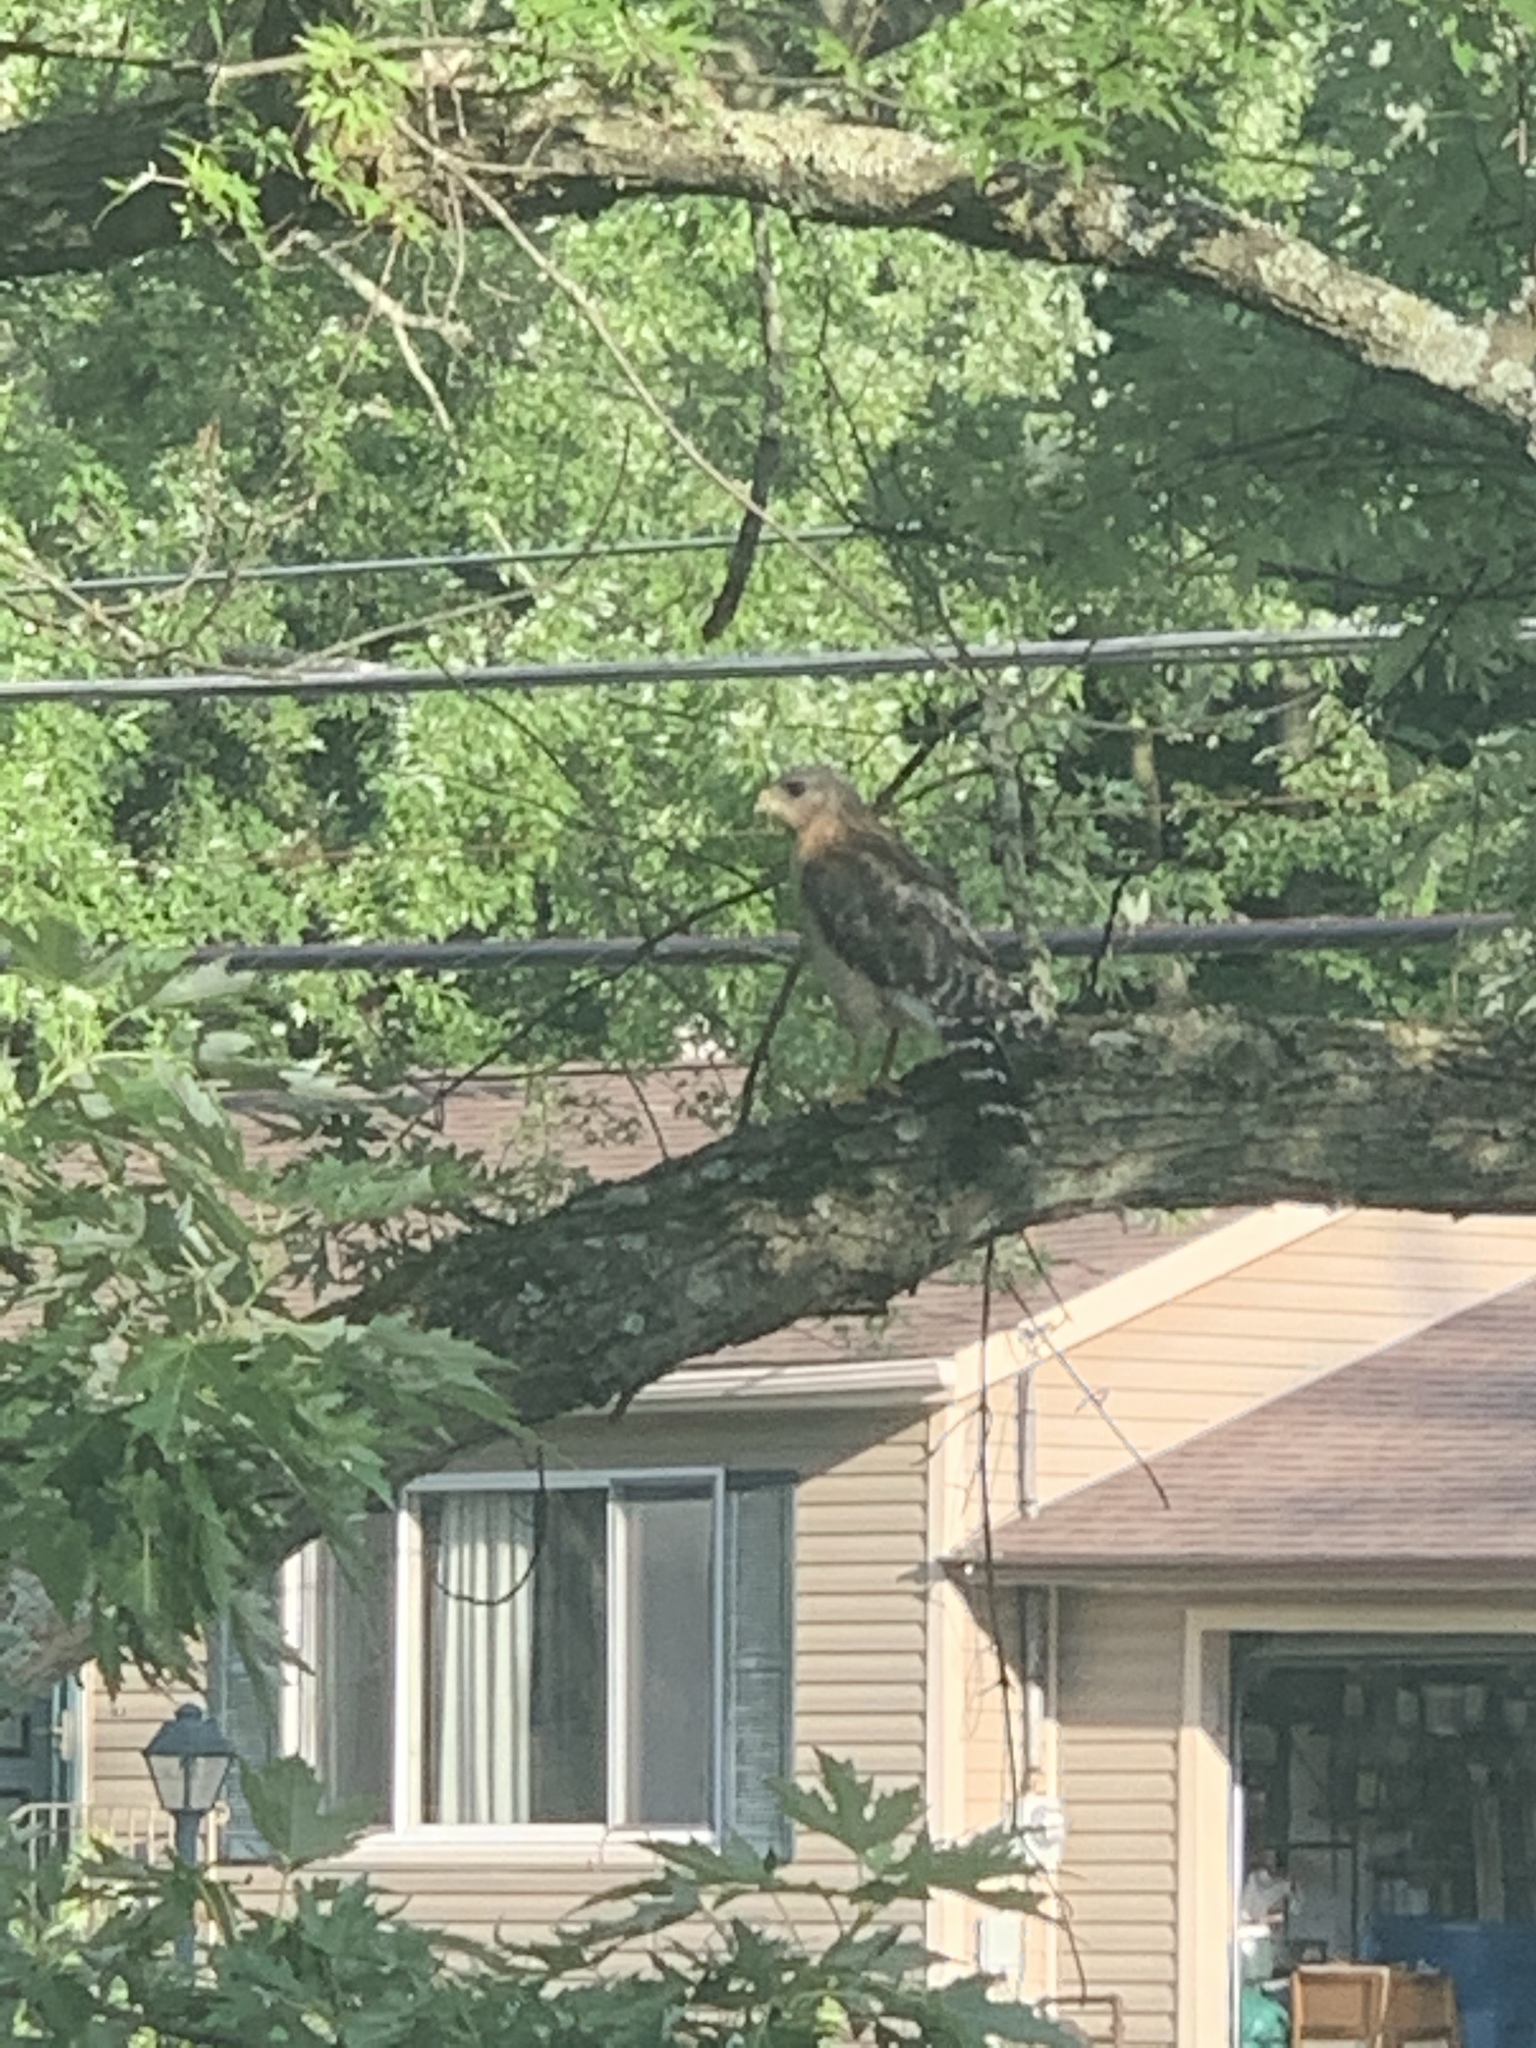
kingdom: Animalia
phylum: Chordata
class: Aves
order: Accipitriformes
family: Accipitridae
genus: Buteo
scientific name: Buteo lineatus
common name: Red-shouldered hawk
